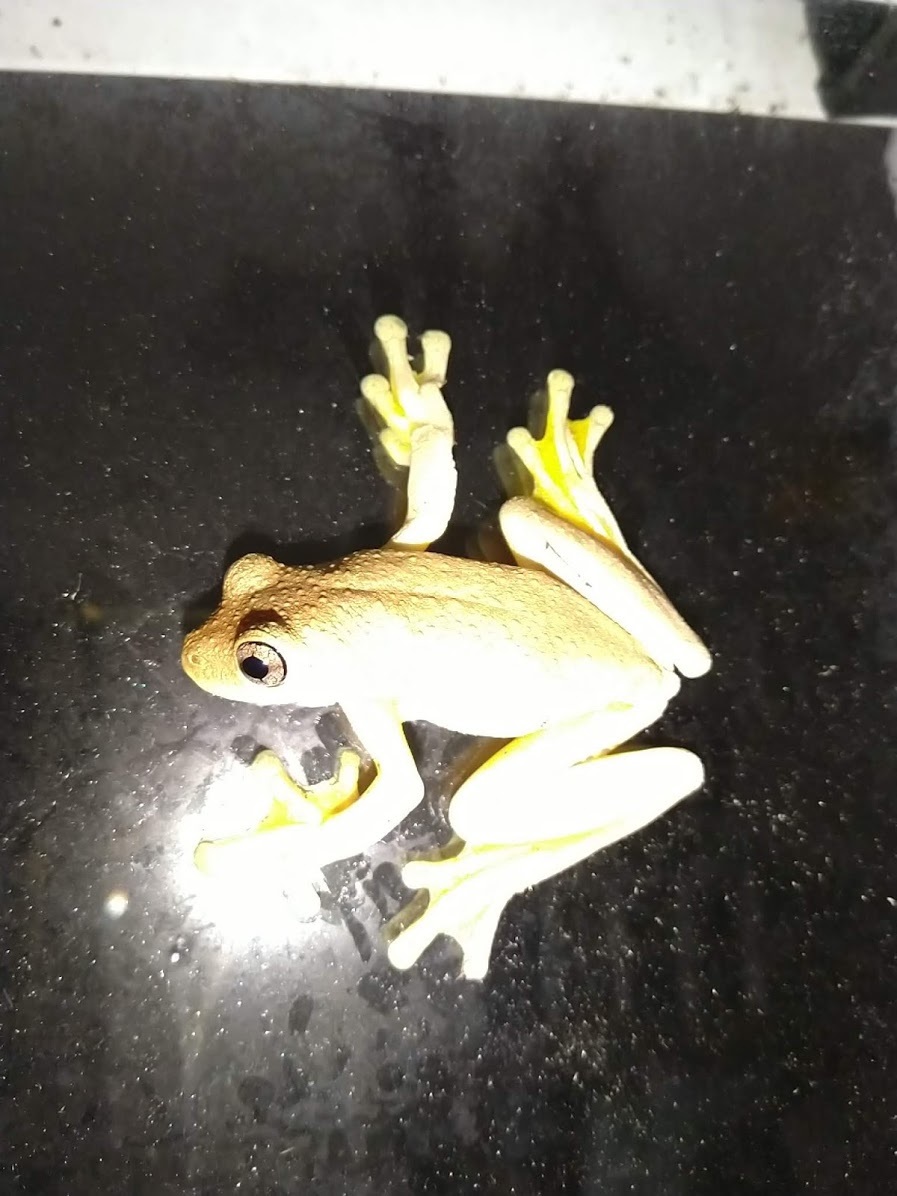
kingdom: Animalia
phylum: Chordata
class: Amphibia
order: Anura
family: Pelodryadidae
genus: Litoria
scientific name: Litoria tyleri
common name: Laughing tree frog
